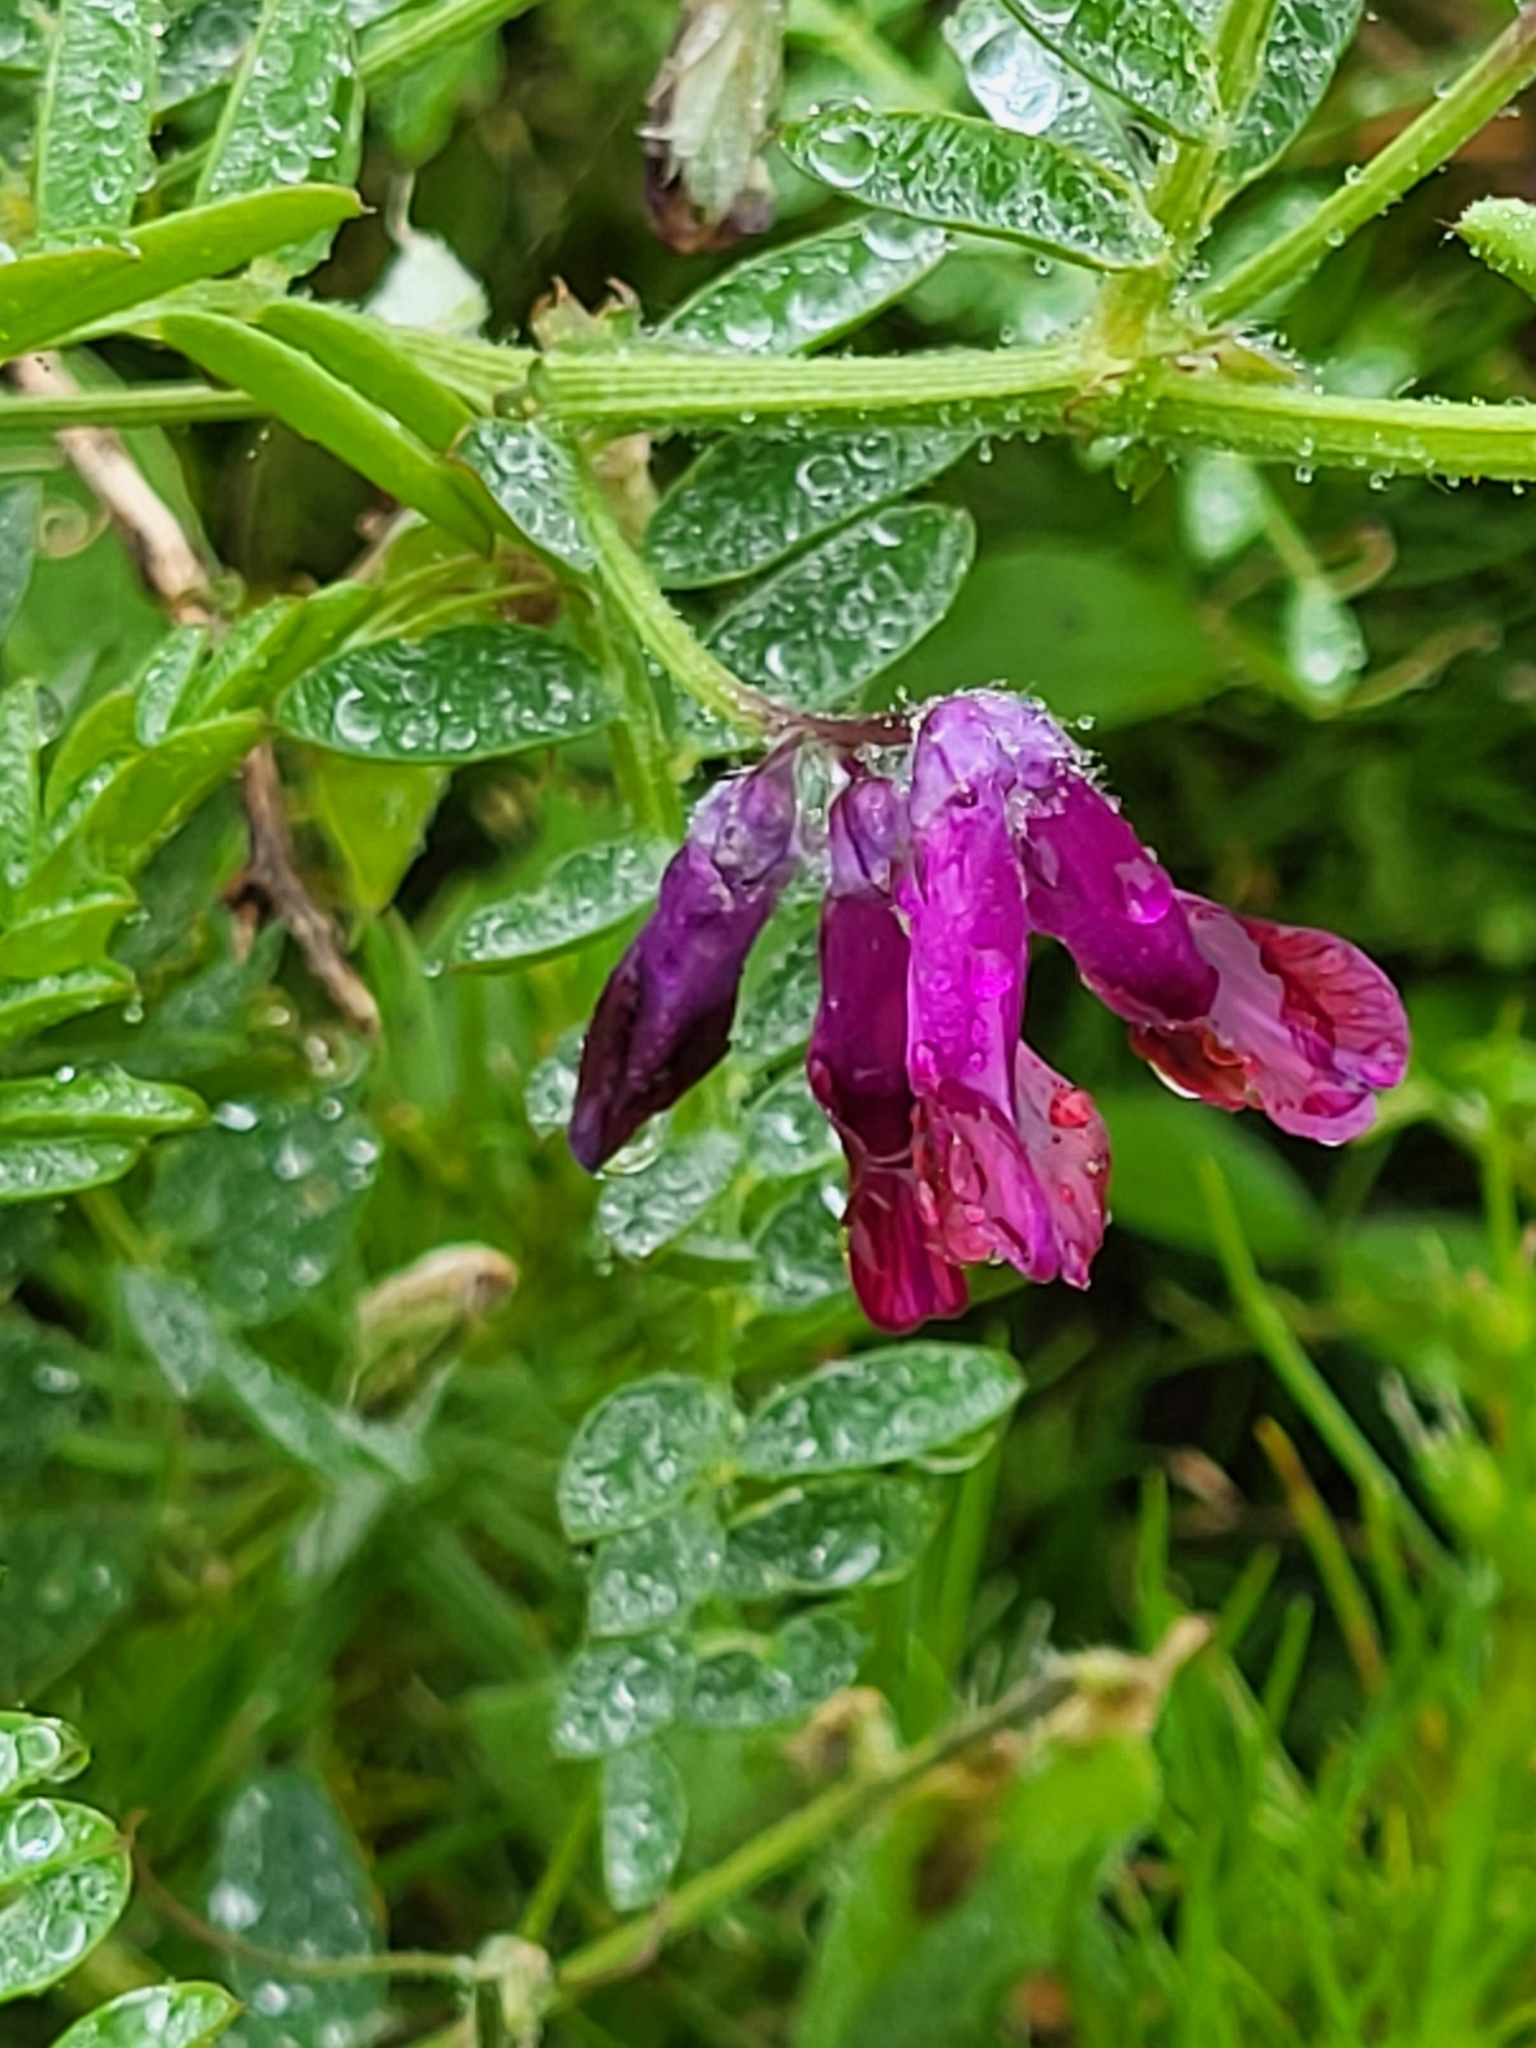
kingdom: Plantae
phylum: Tracheophyta
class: Magnoliopsida
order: Fabales
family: Fabaceae
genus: Vicia
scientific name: Vicia benghalensis
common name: Purple vetch
